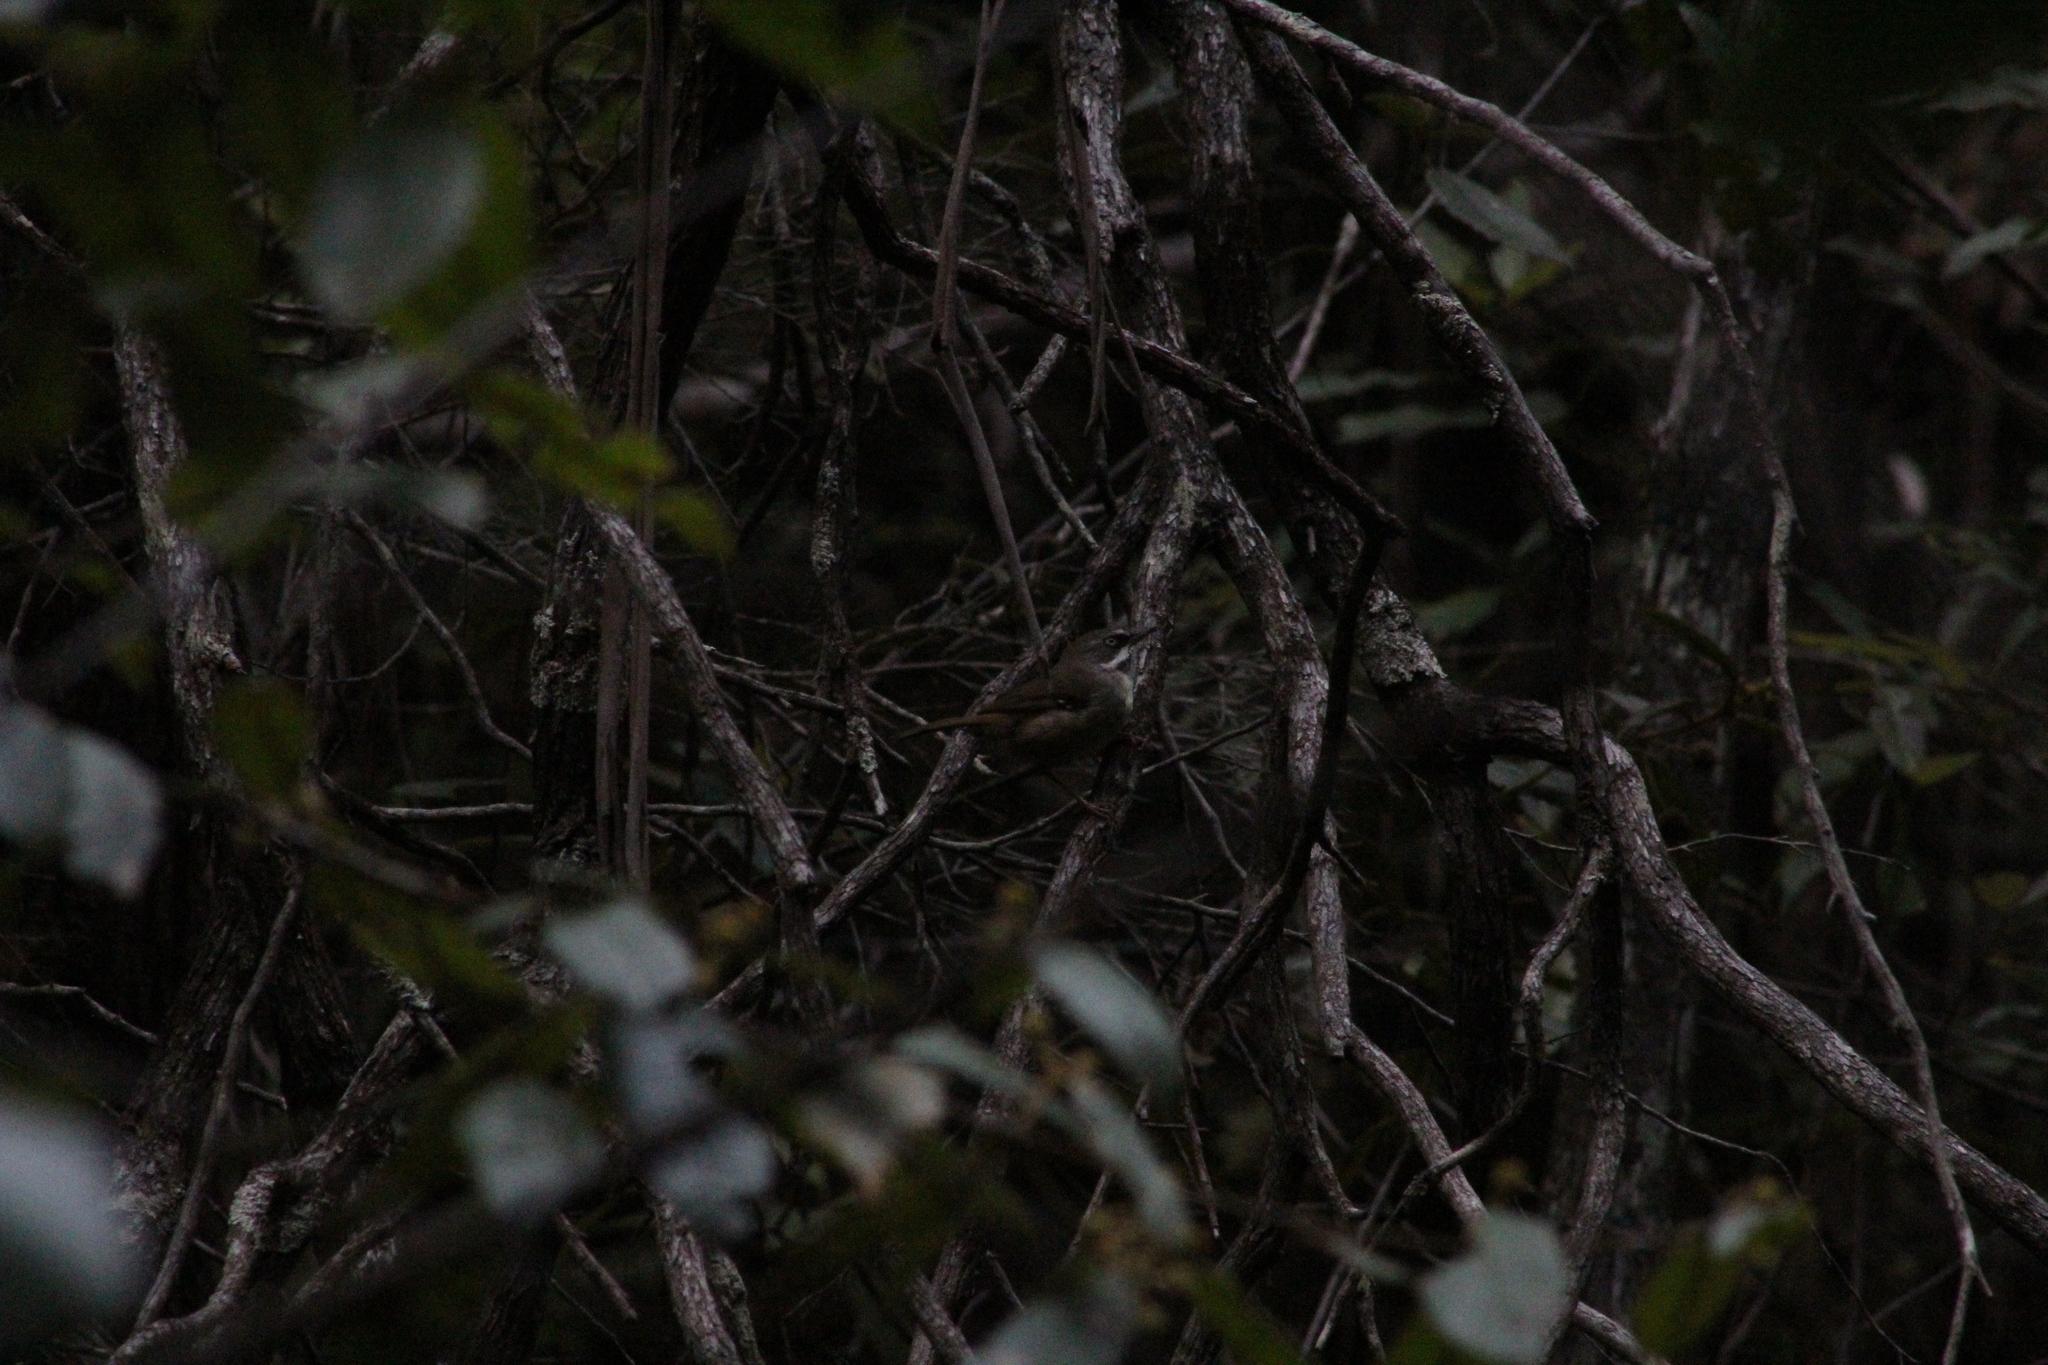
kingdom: Animalia
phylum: Chordata
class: Aves
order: Passeriformes
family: Acanthizidae
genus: Sericornis
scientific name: Sericornis frontalis
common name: White-browed scrubwren
